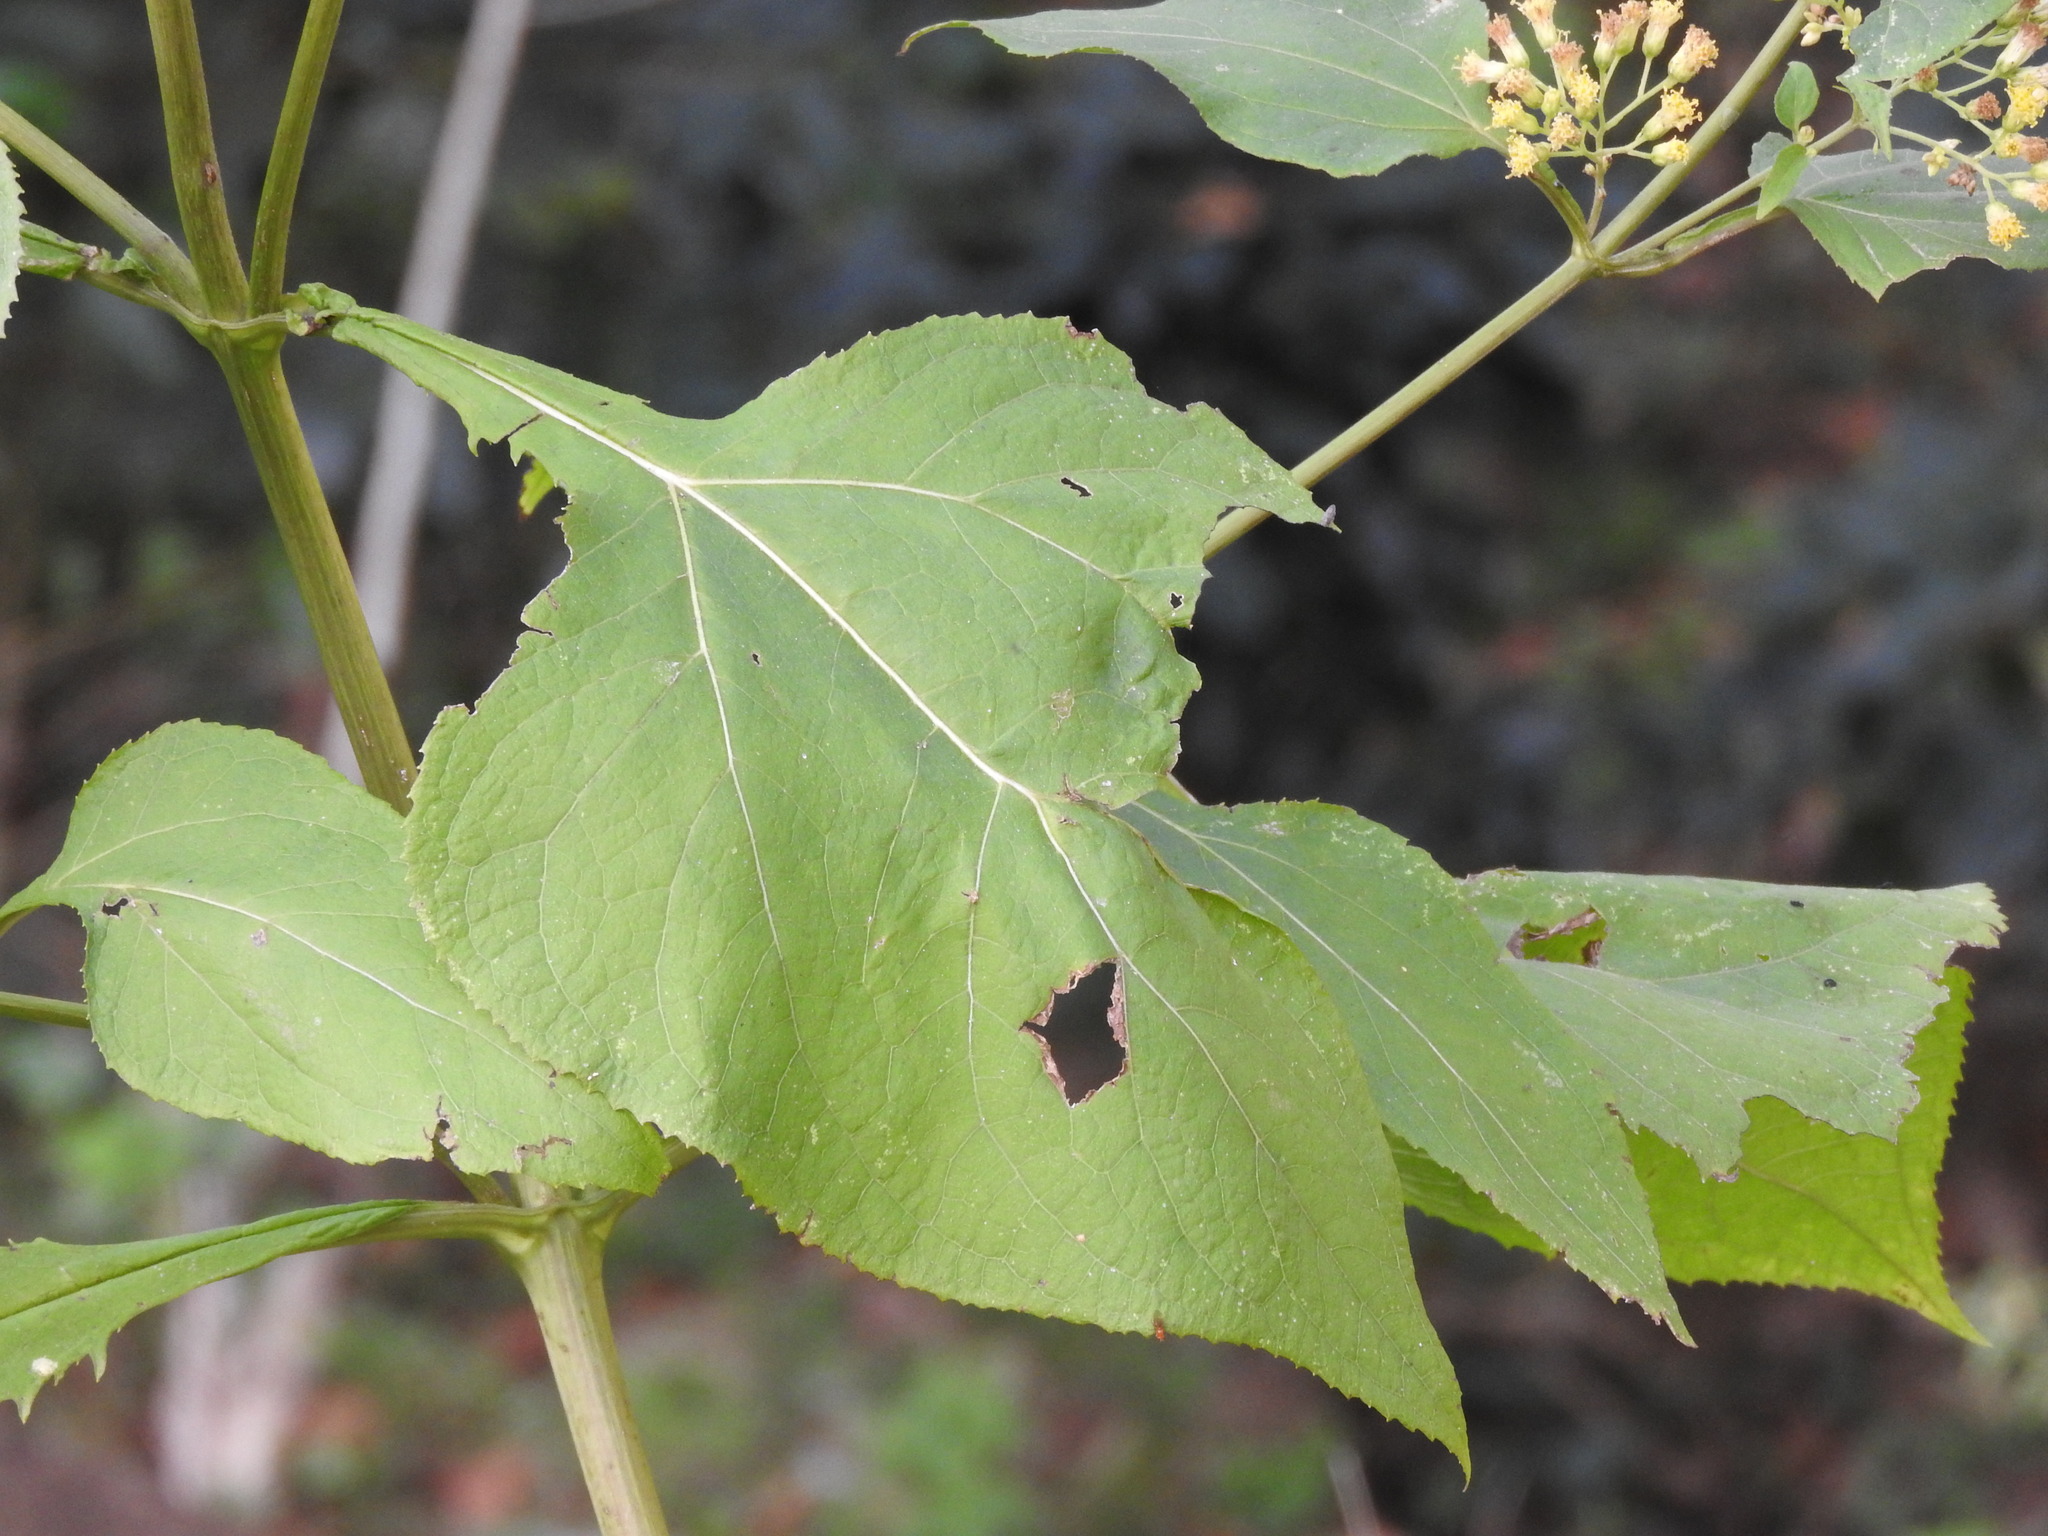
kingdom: Plantae
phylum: Tracheophyta
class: Magnoliopsida
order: Asterales
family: Asteraceae
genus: Schistocarpha
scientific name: Schistocarpha eupatorioides
